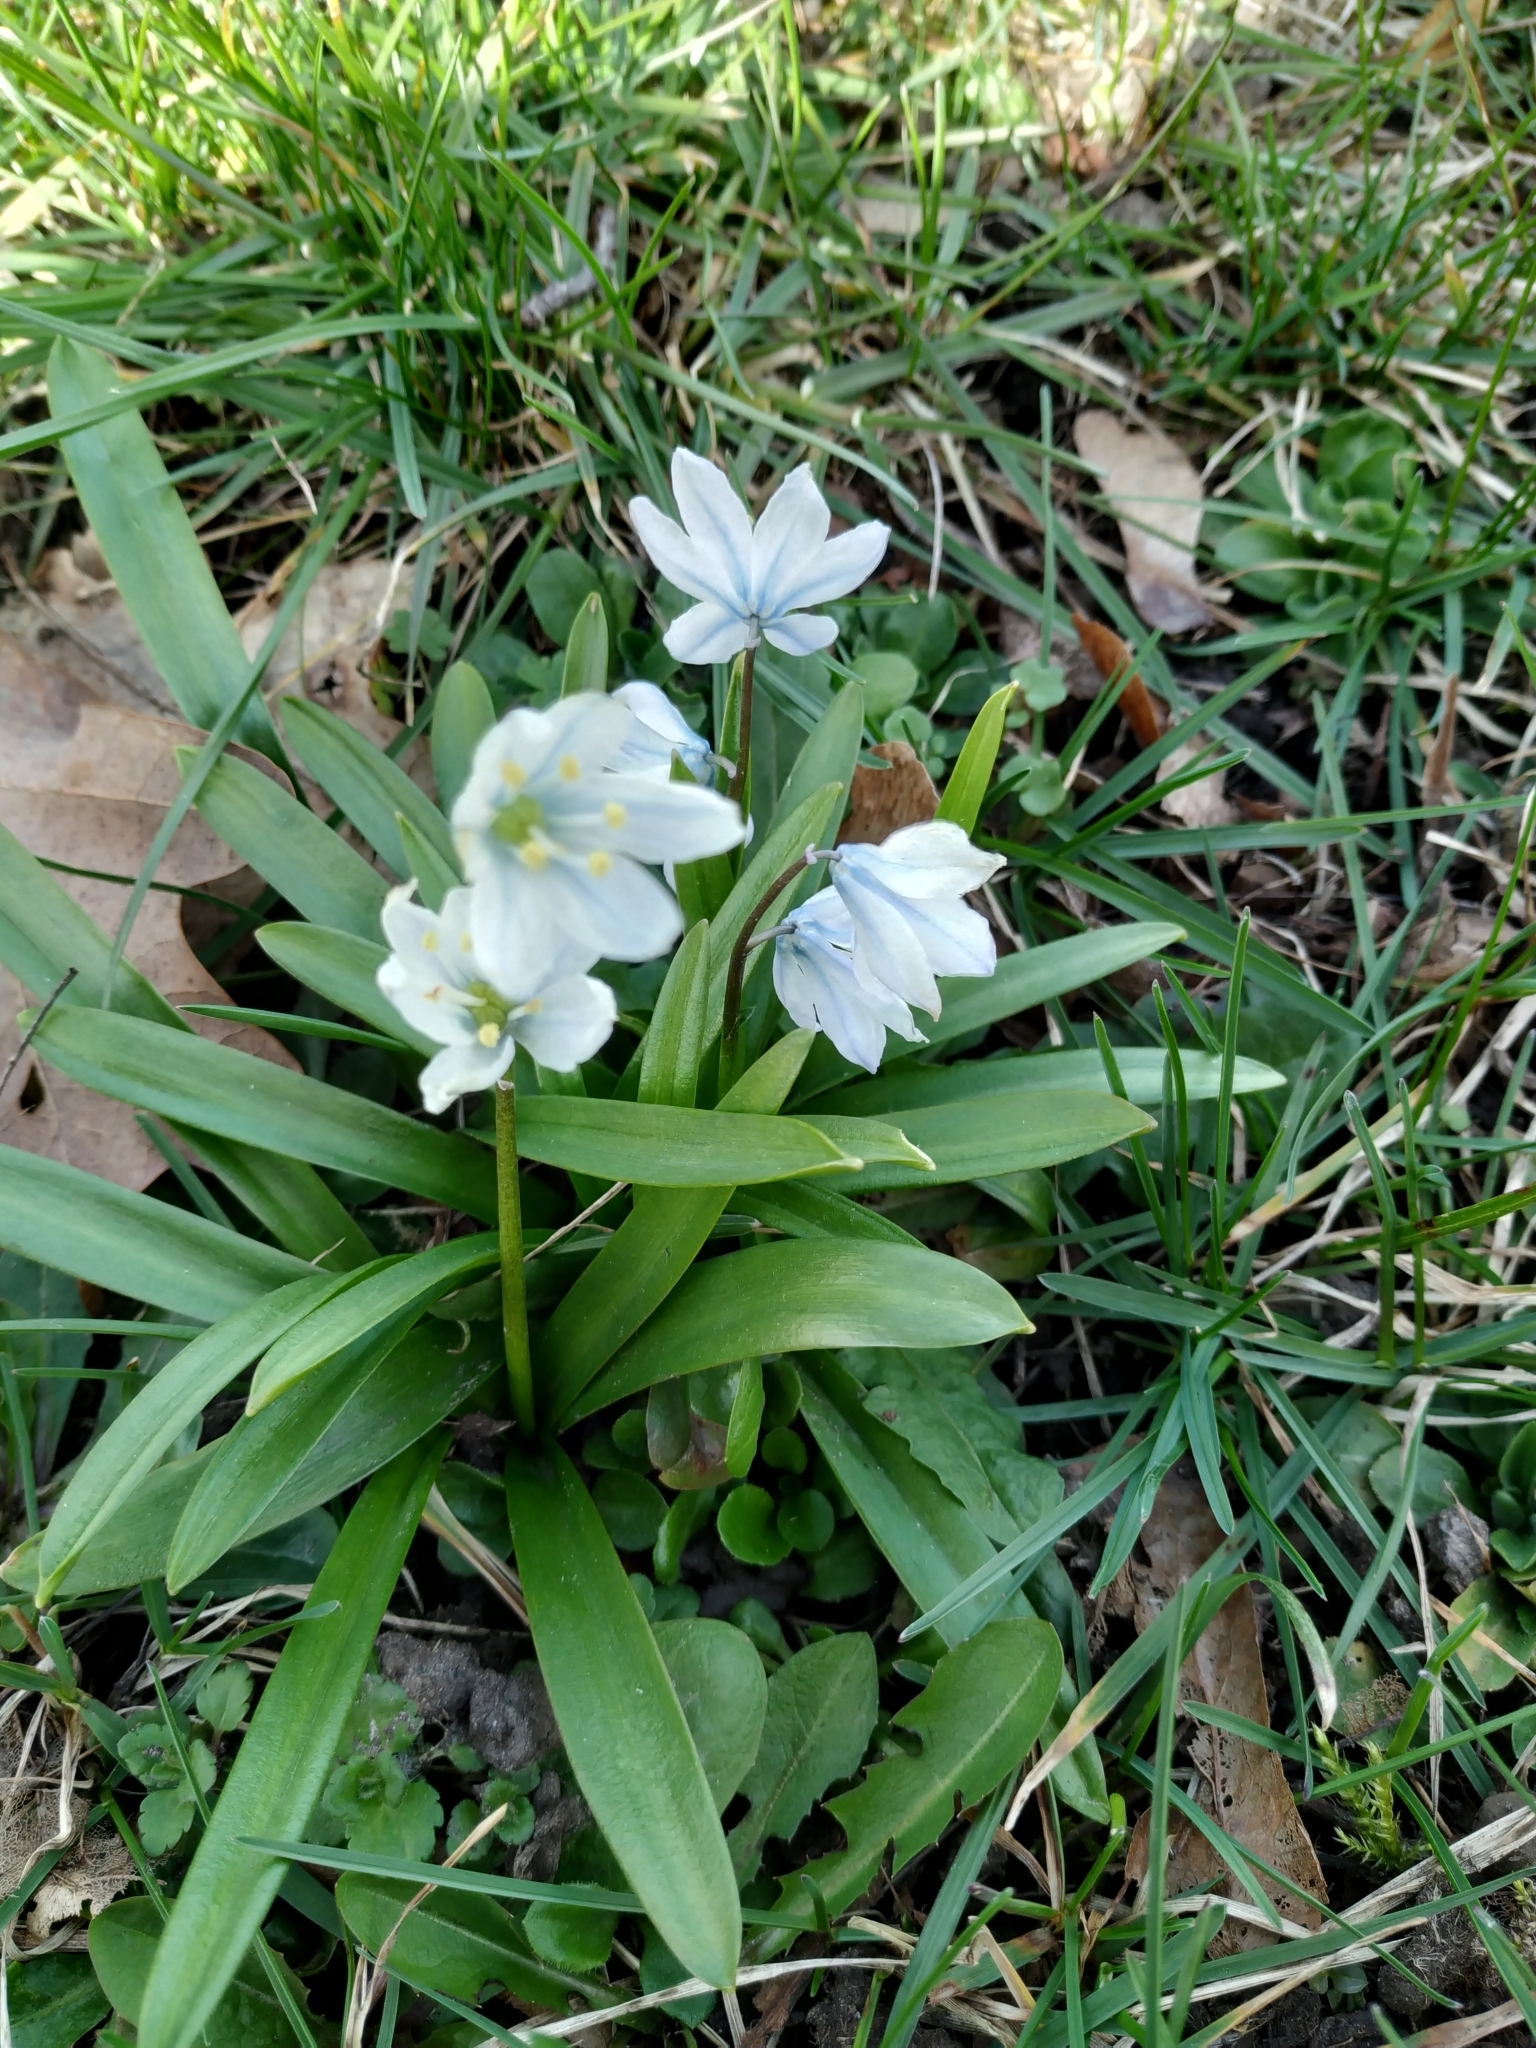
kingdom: Plantae
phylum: Tracheophyta
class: Liliopsida
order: Asparagales
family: Asparagaceae
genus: Scilla
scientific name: Scilla mischtschenkoana
